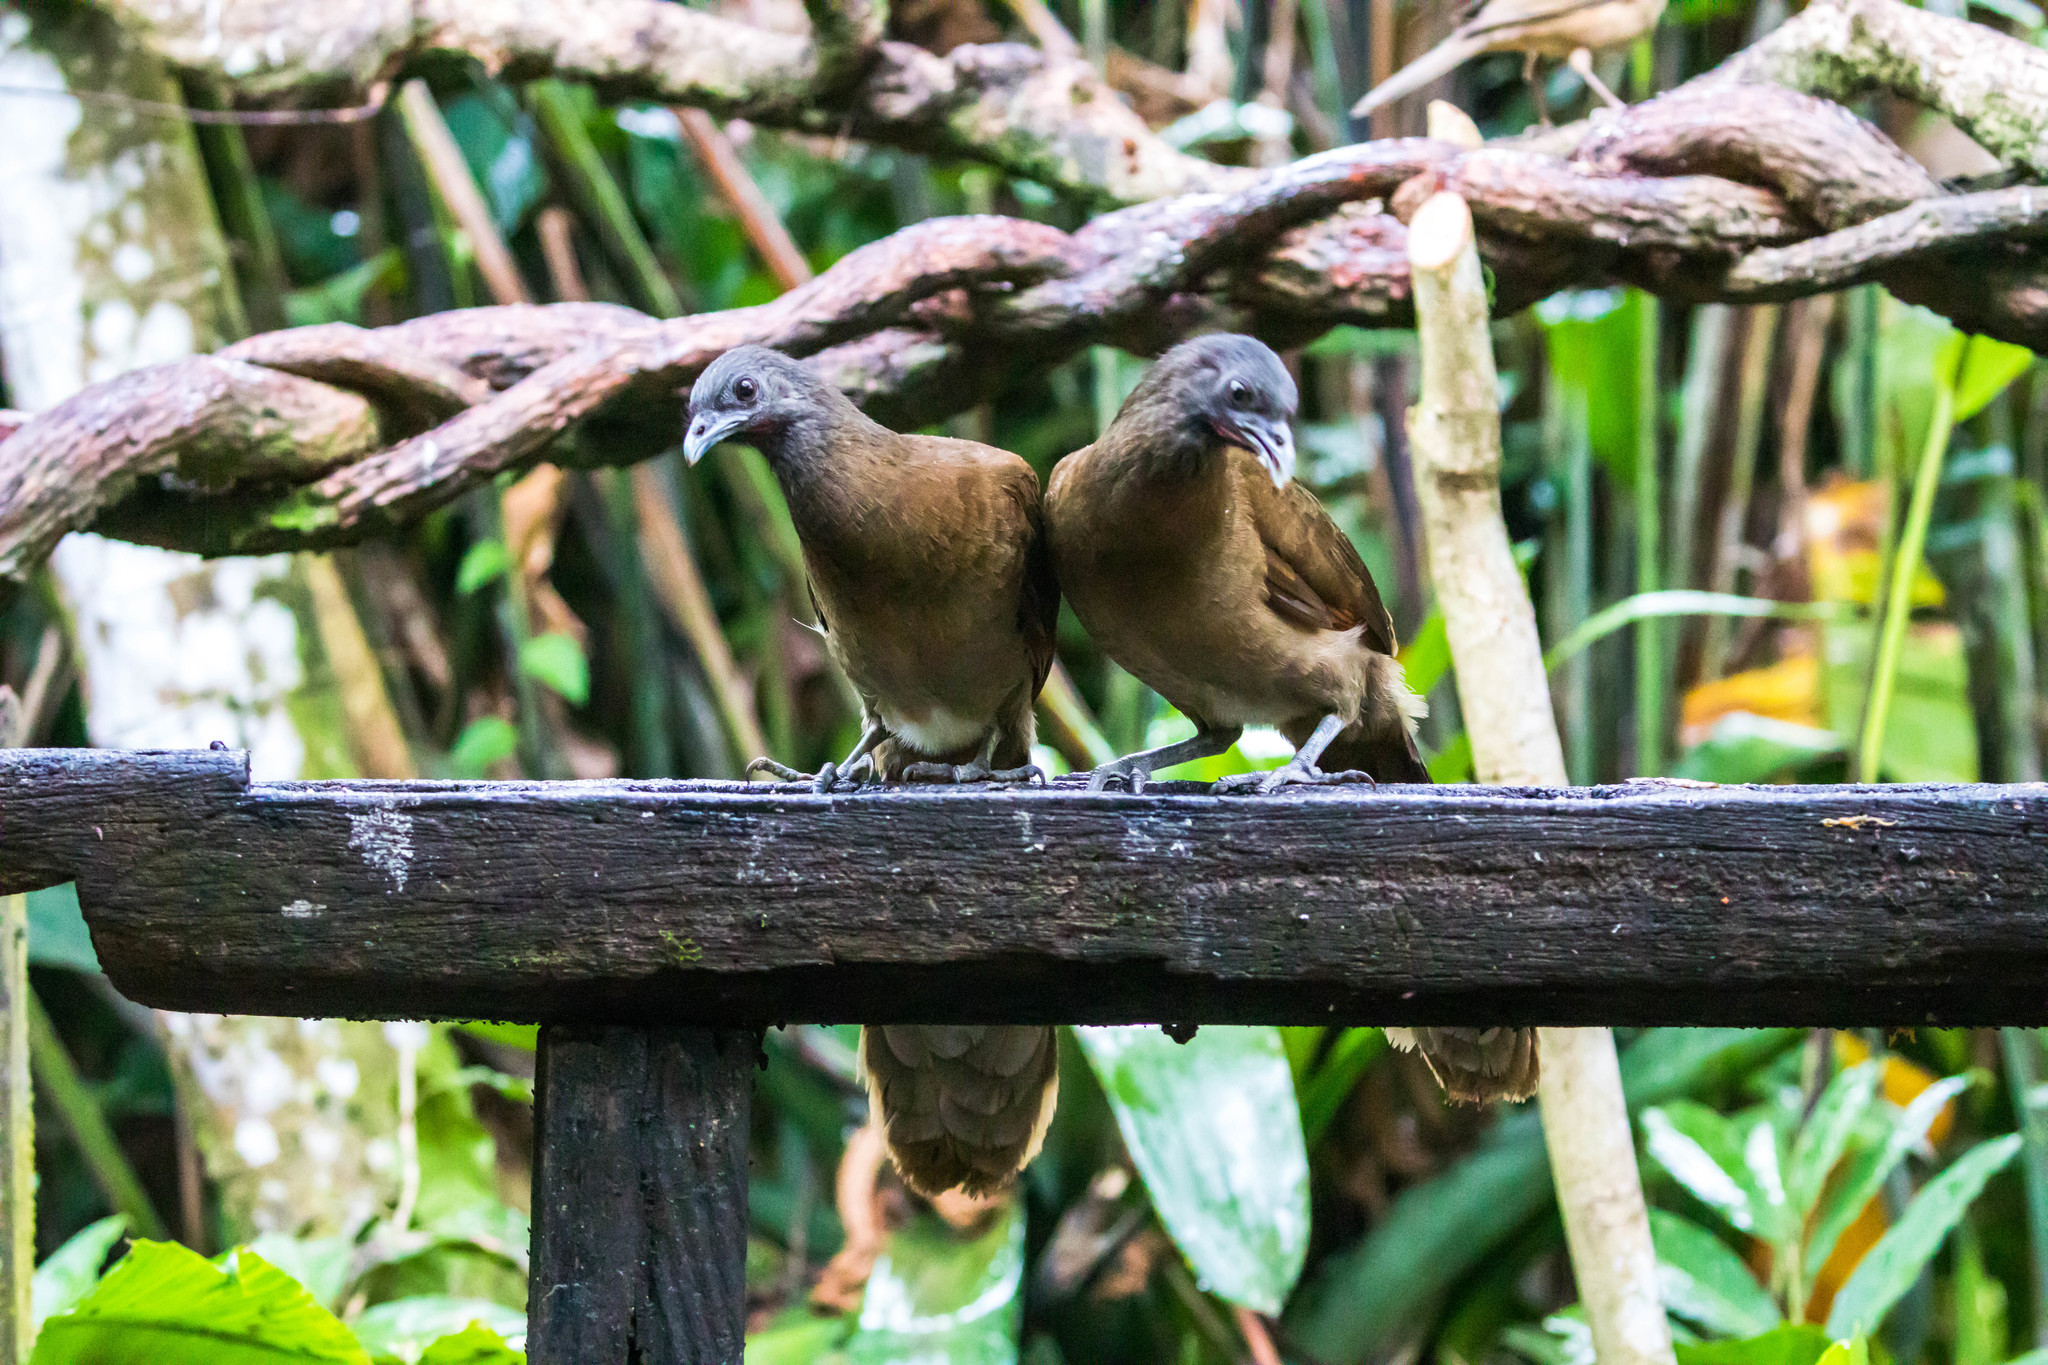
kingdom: Animalia
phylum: Chordata
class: Aves
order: Galliformes
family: Cracidae
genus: Ortalis
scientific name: Ortalis cinereiceps
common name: Grey-headed chachalaca
